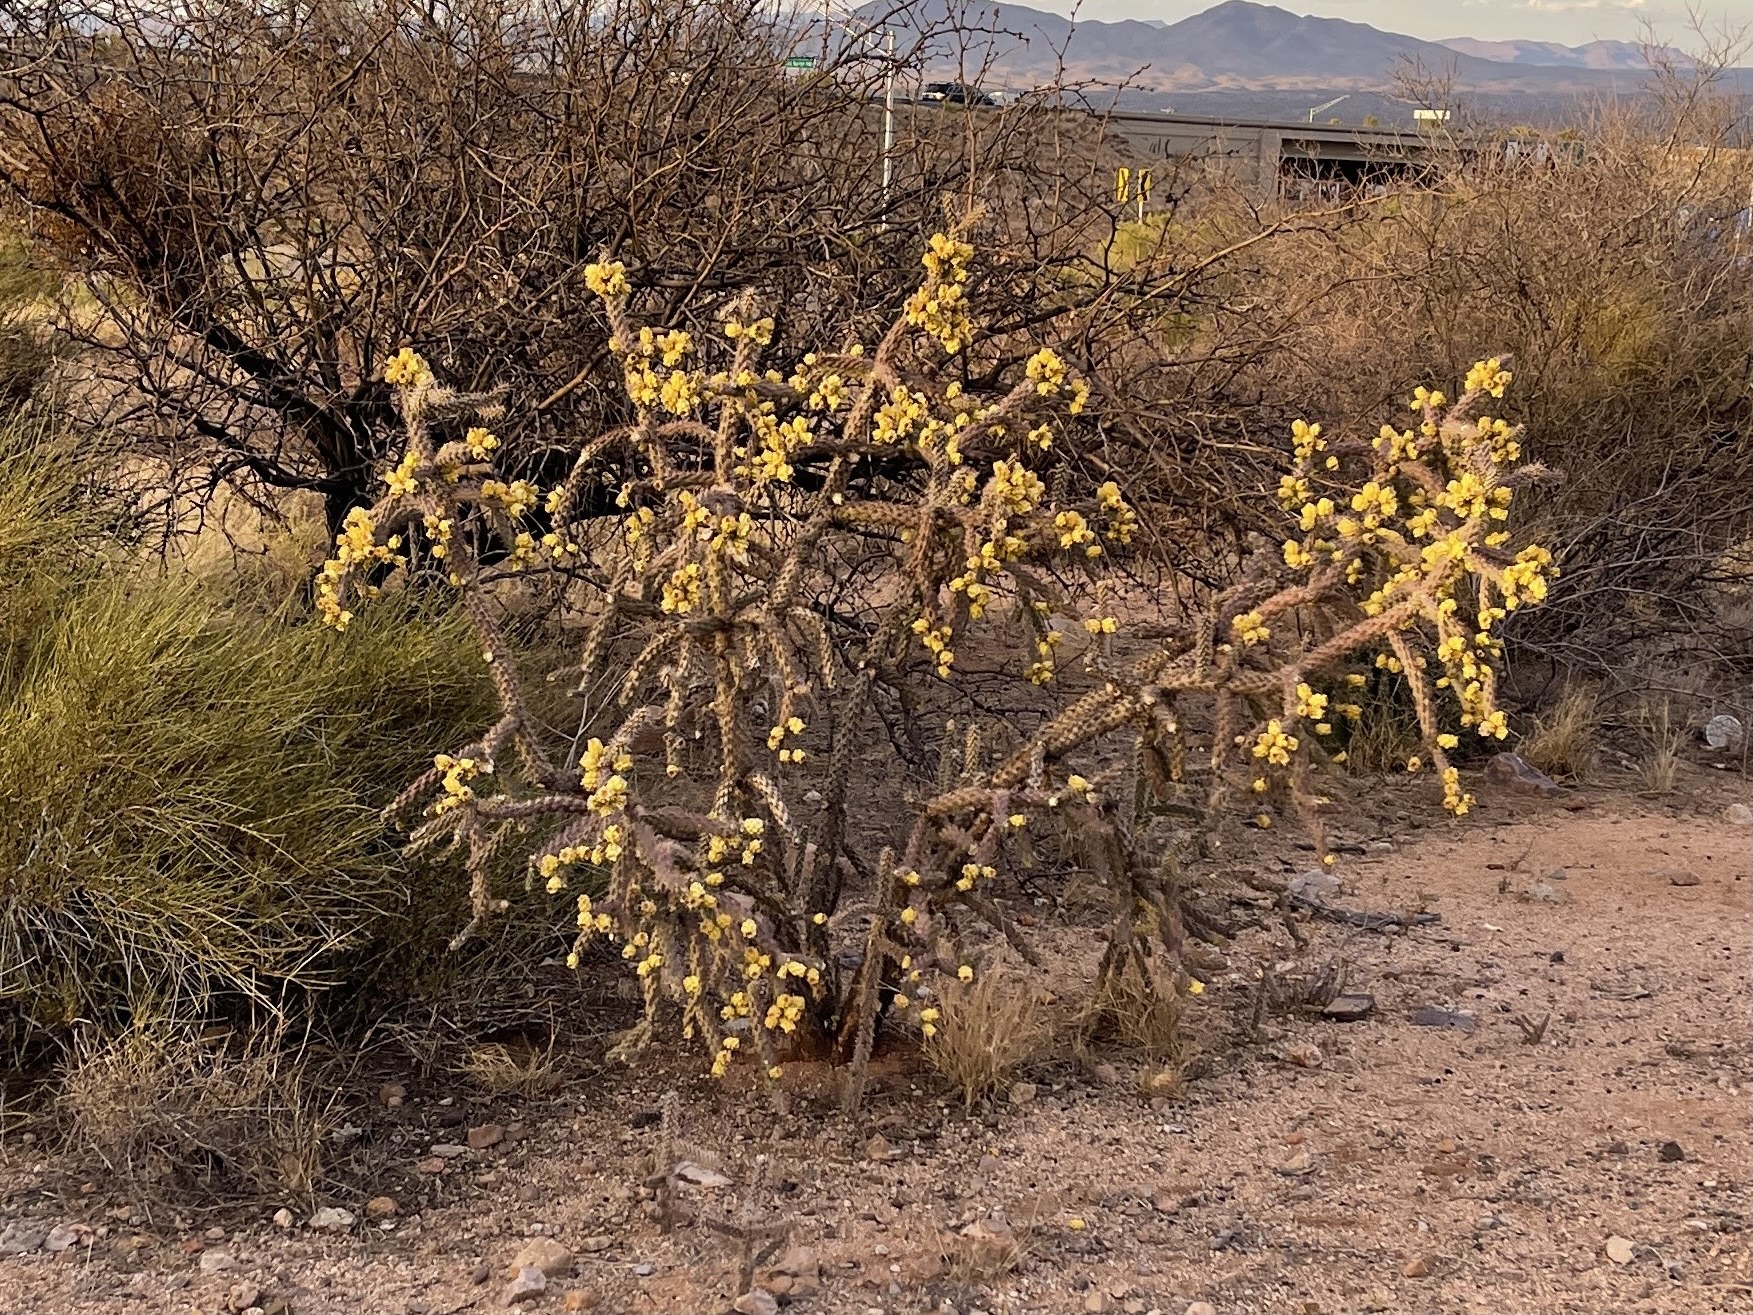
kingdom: Plantae
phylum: Tracheophyta
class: Magnoliopsida
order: Caryophyllales
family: Cactaceae
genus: Cylindropuntia
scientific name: Cylindropuntia imbricata
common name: Candelabrum cactus
